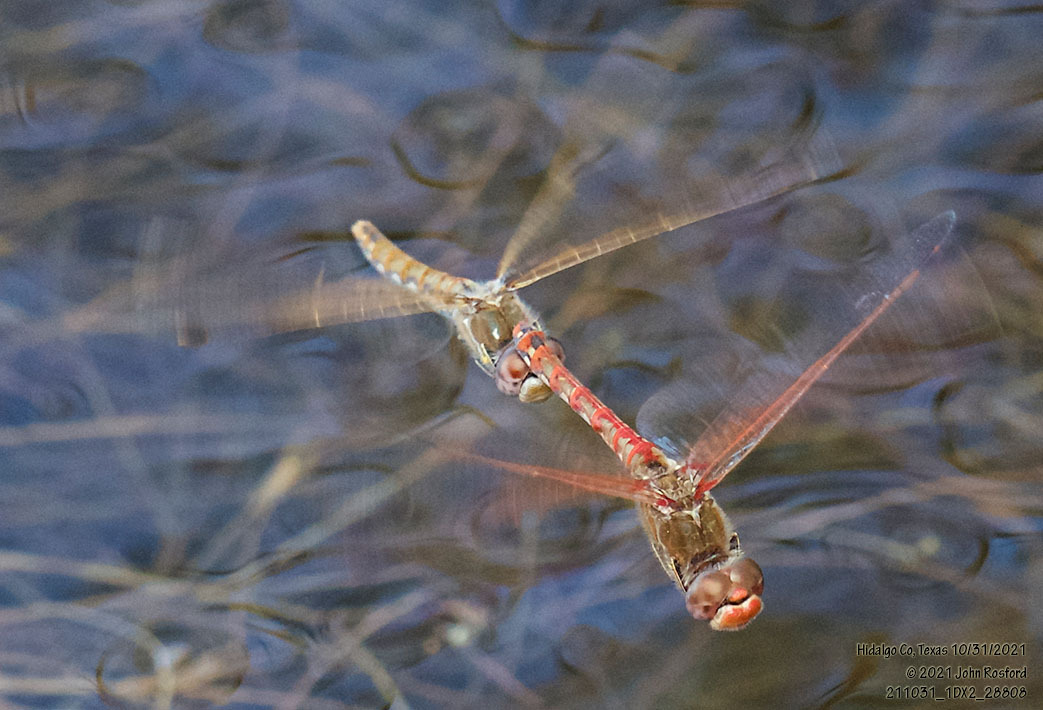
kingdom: Animalia
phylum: Arthropoda
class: Insecta
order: Odonata
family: Libellulidae
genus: Sympetrum
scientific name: Sympetrum corruptum
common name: Variegated meadowhawk
